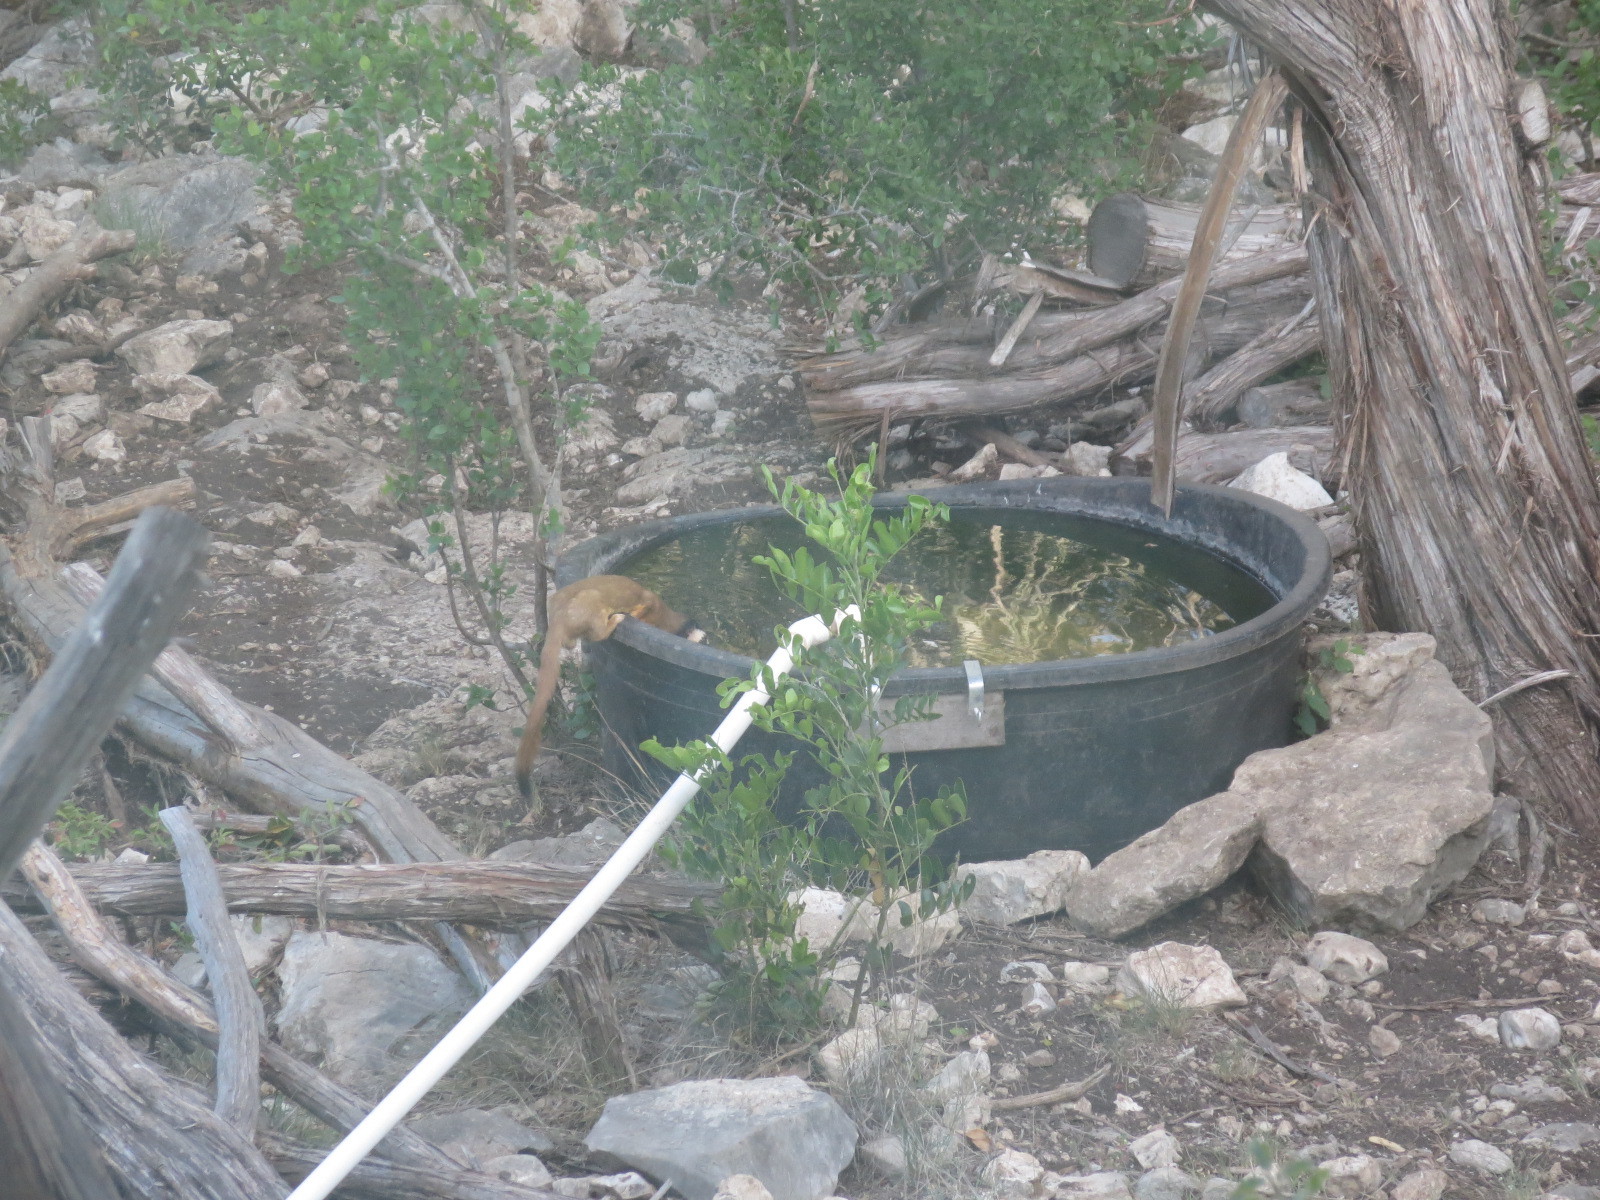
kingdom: Animalia
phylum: Chordata
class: Mammalia
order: Carnivora
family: Mustelidae
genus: Mustela
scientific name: Mustela
